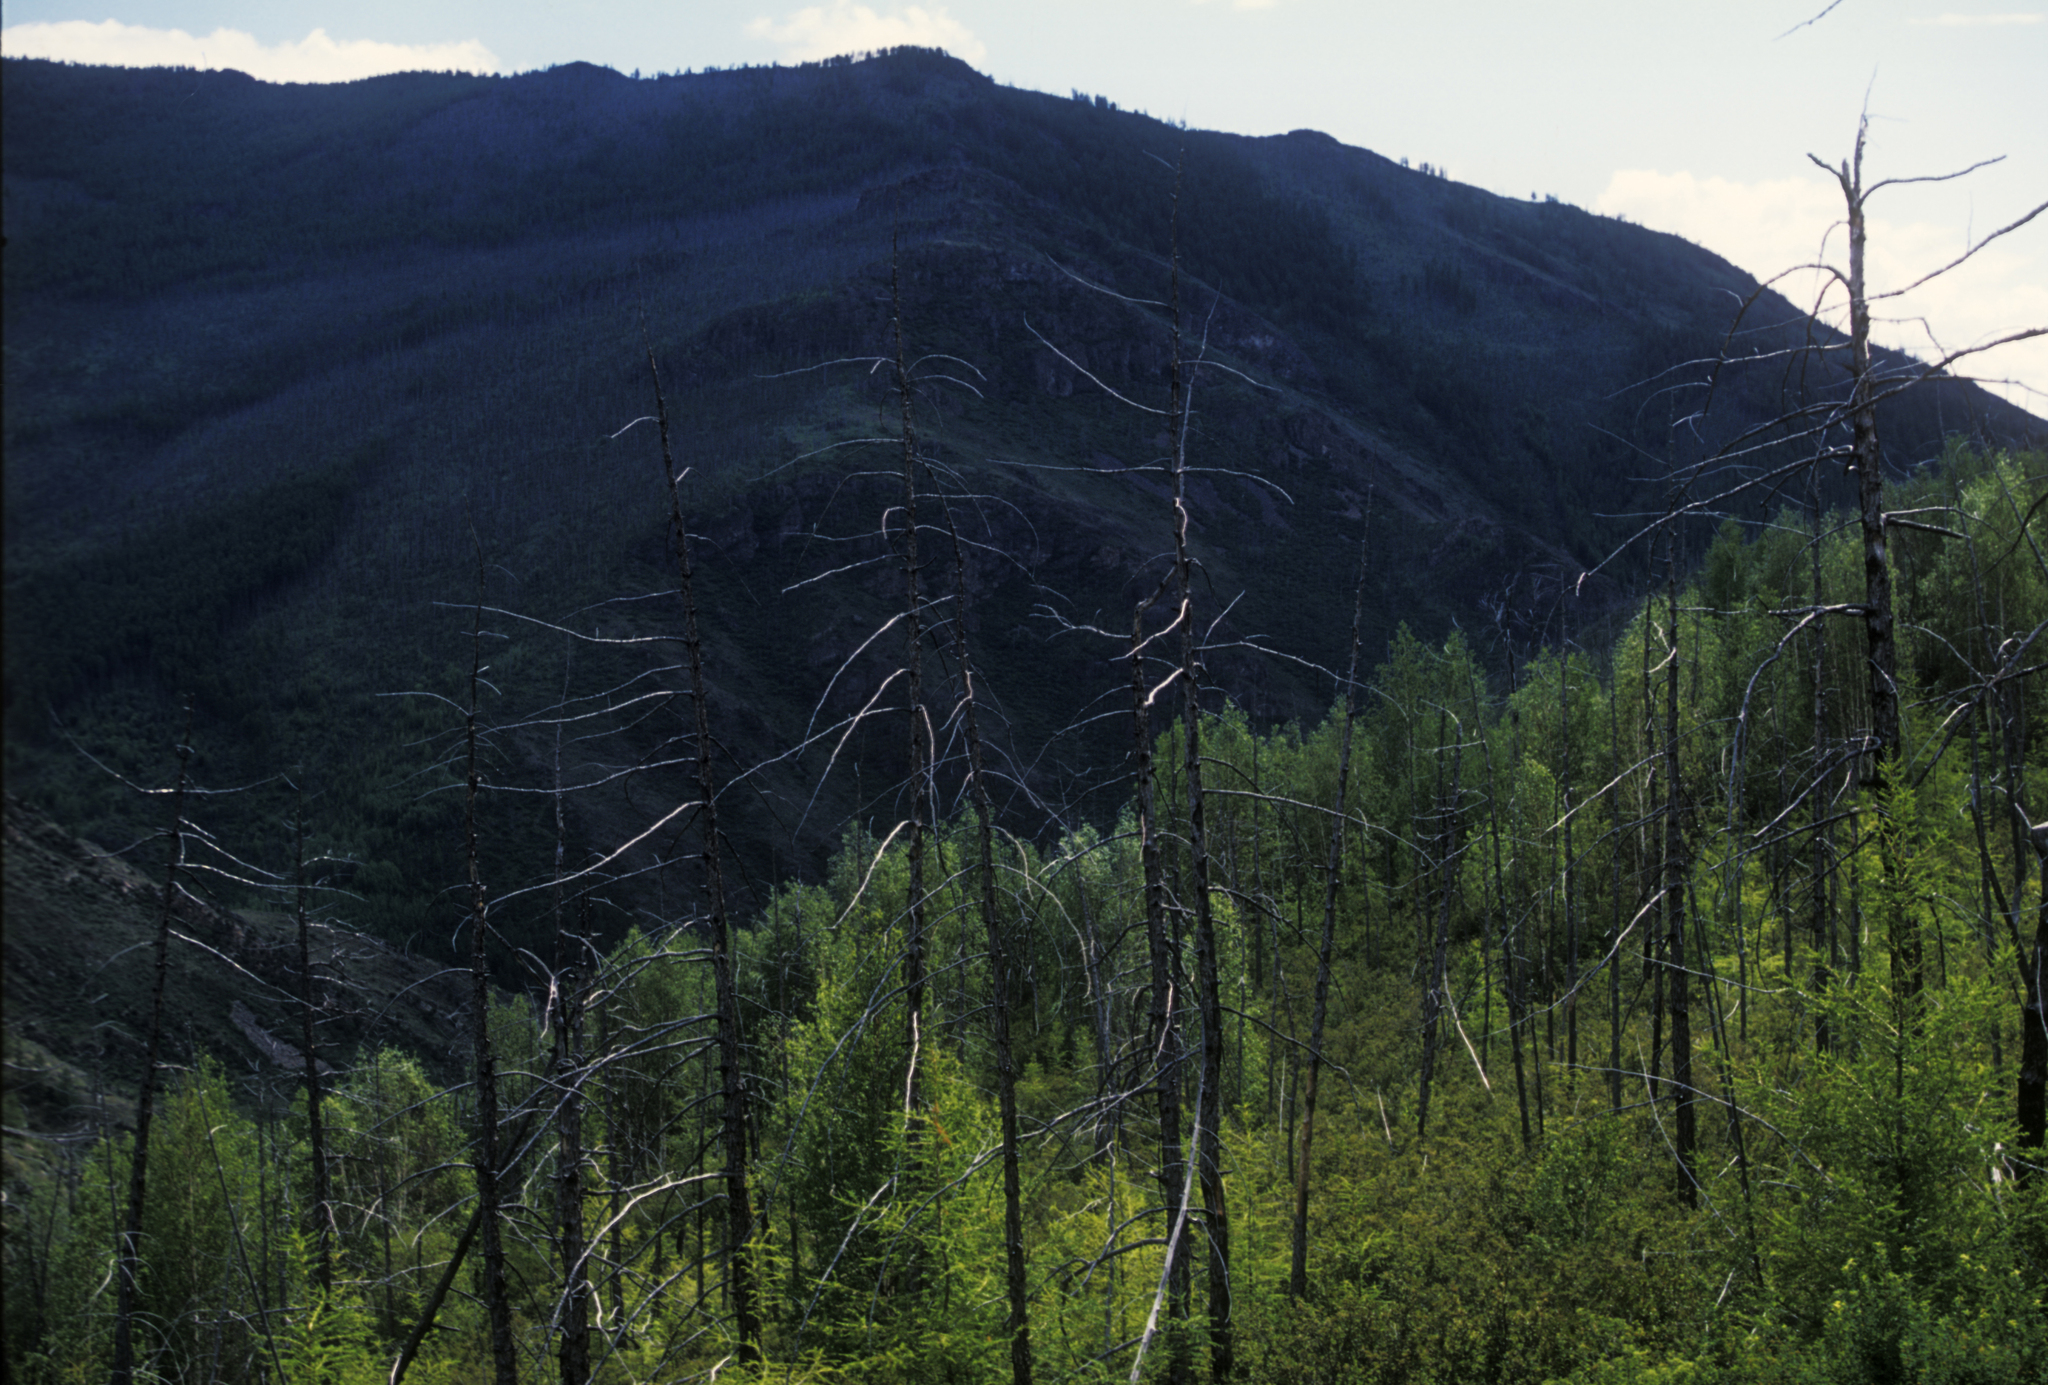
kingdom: Plantae
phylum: Tracheophyta
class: Pinopsida
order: Pinales
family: Pinaceae
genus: Larix
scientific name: Larix sibirica
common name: Siberian larch
